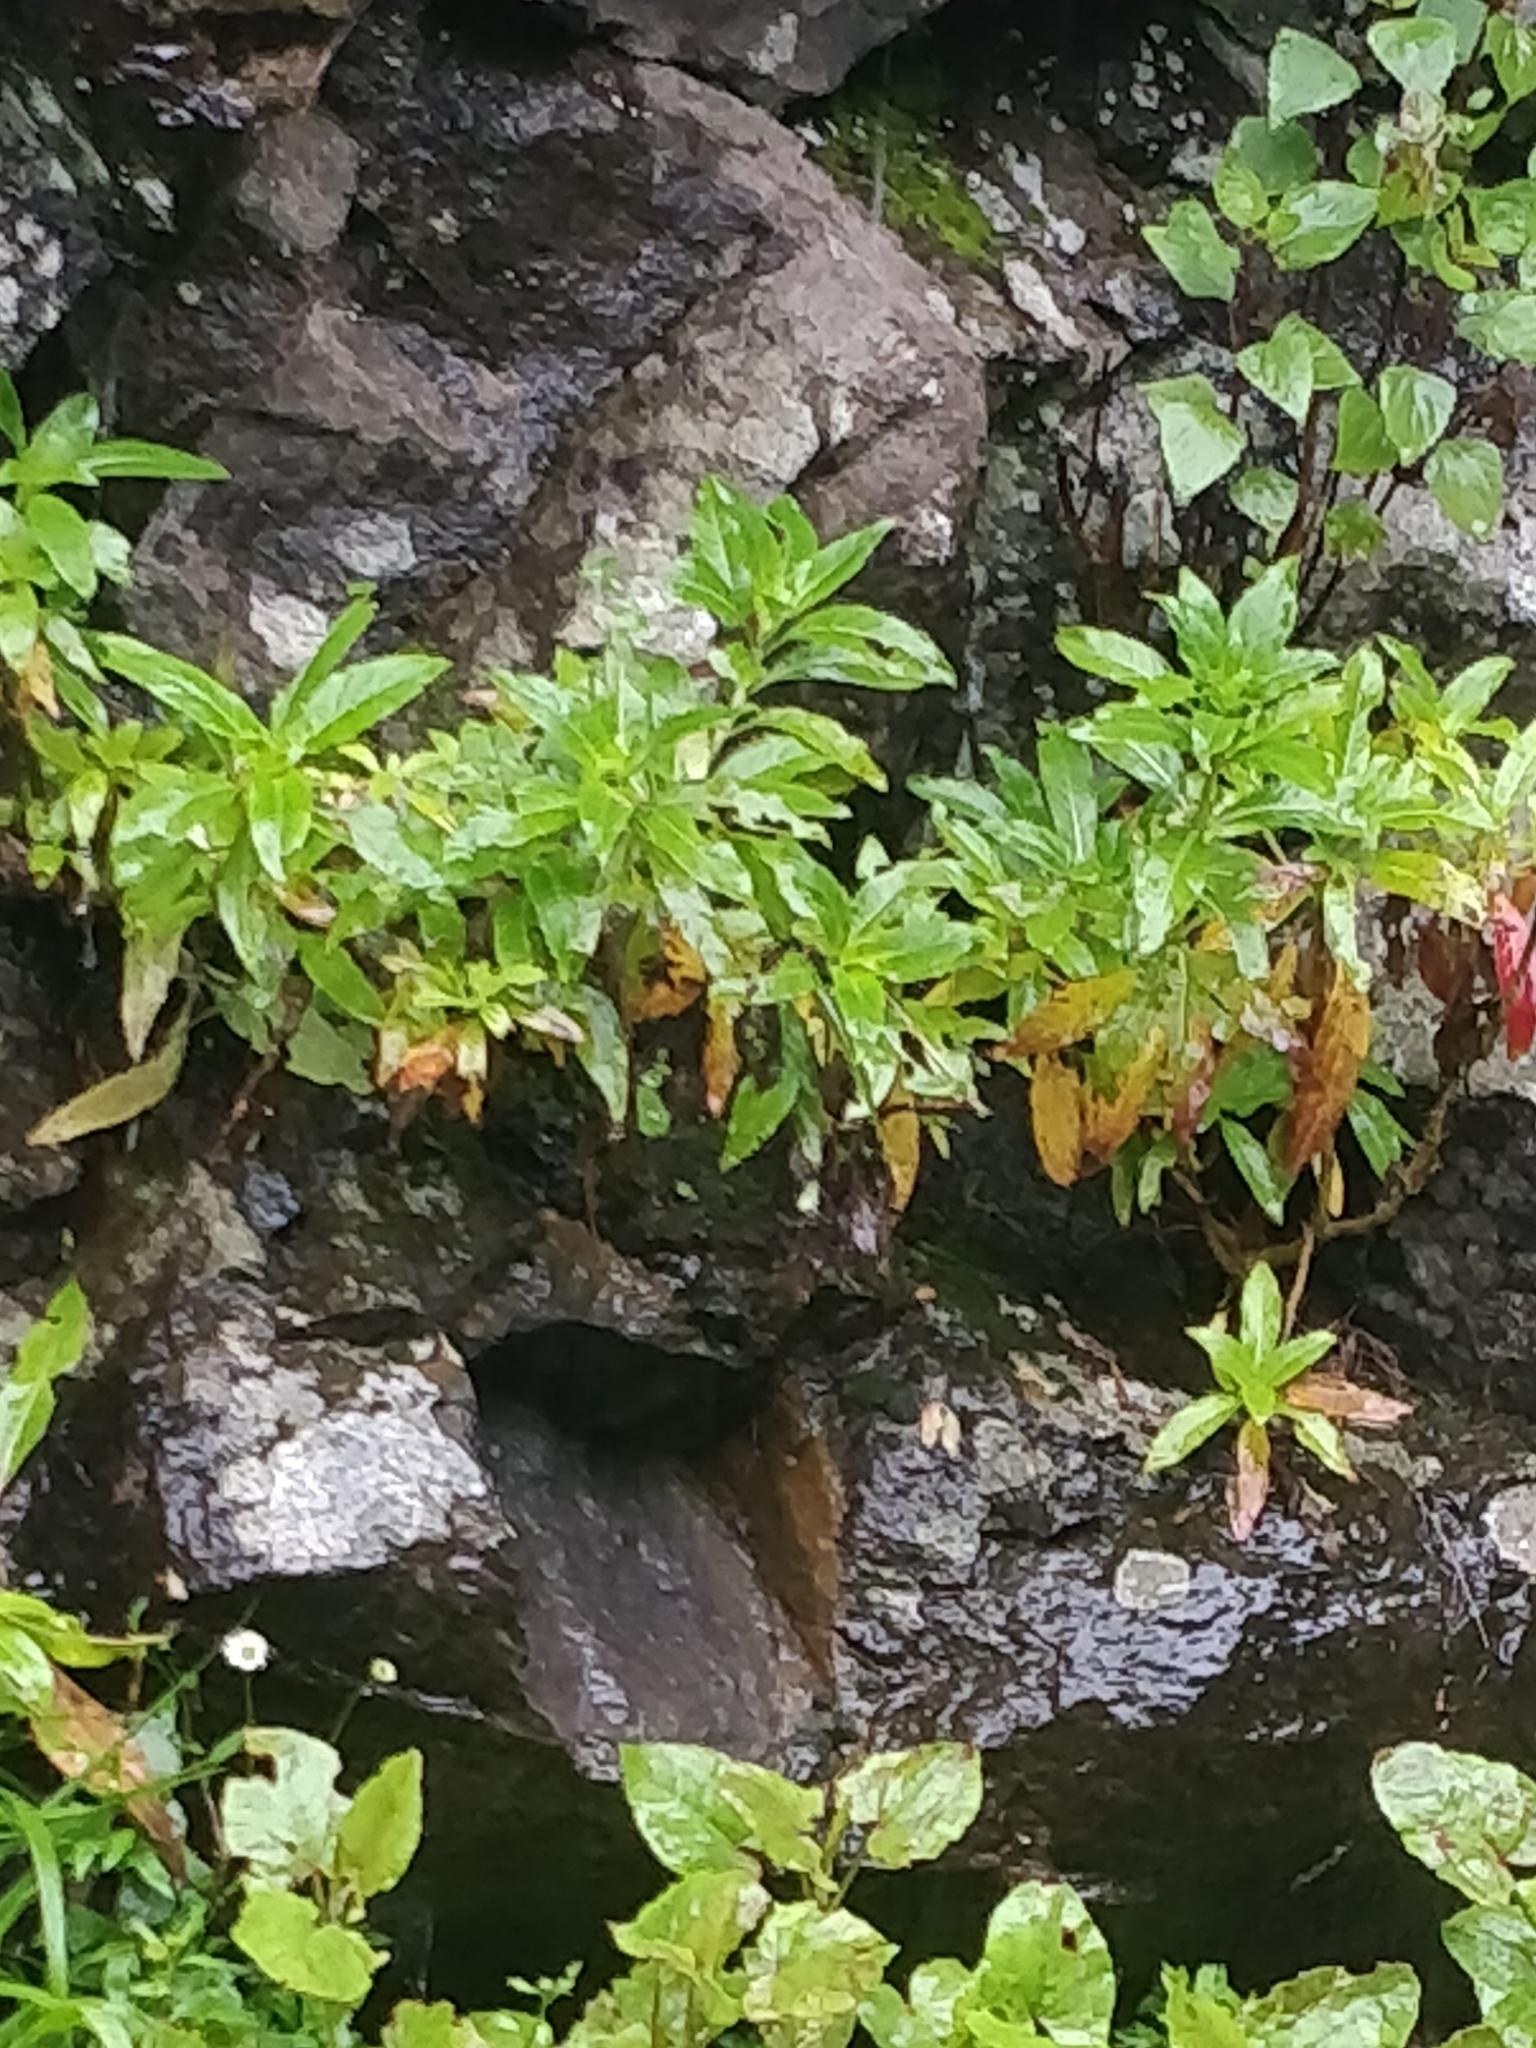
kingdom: Plantae
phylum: Tracheophyta
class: Magnoliopsida
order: Gentianales
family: Rubiaceae
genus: Phyllis
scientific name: Phyllis nobla
